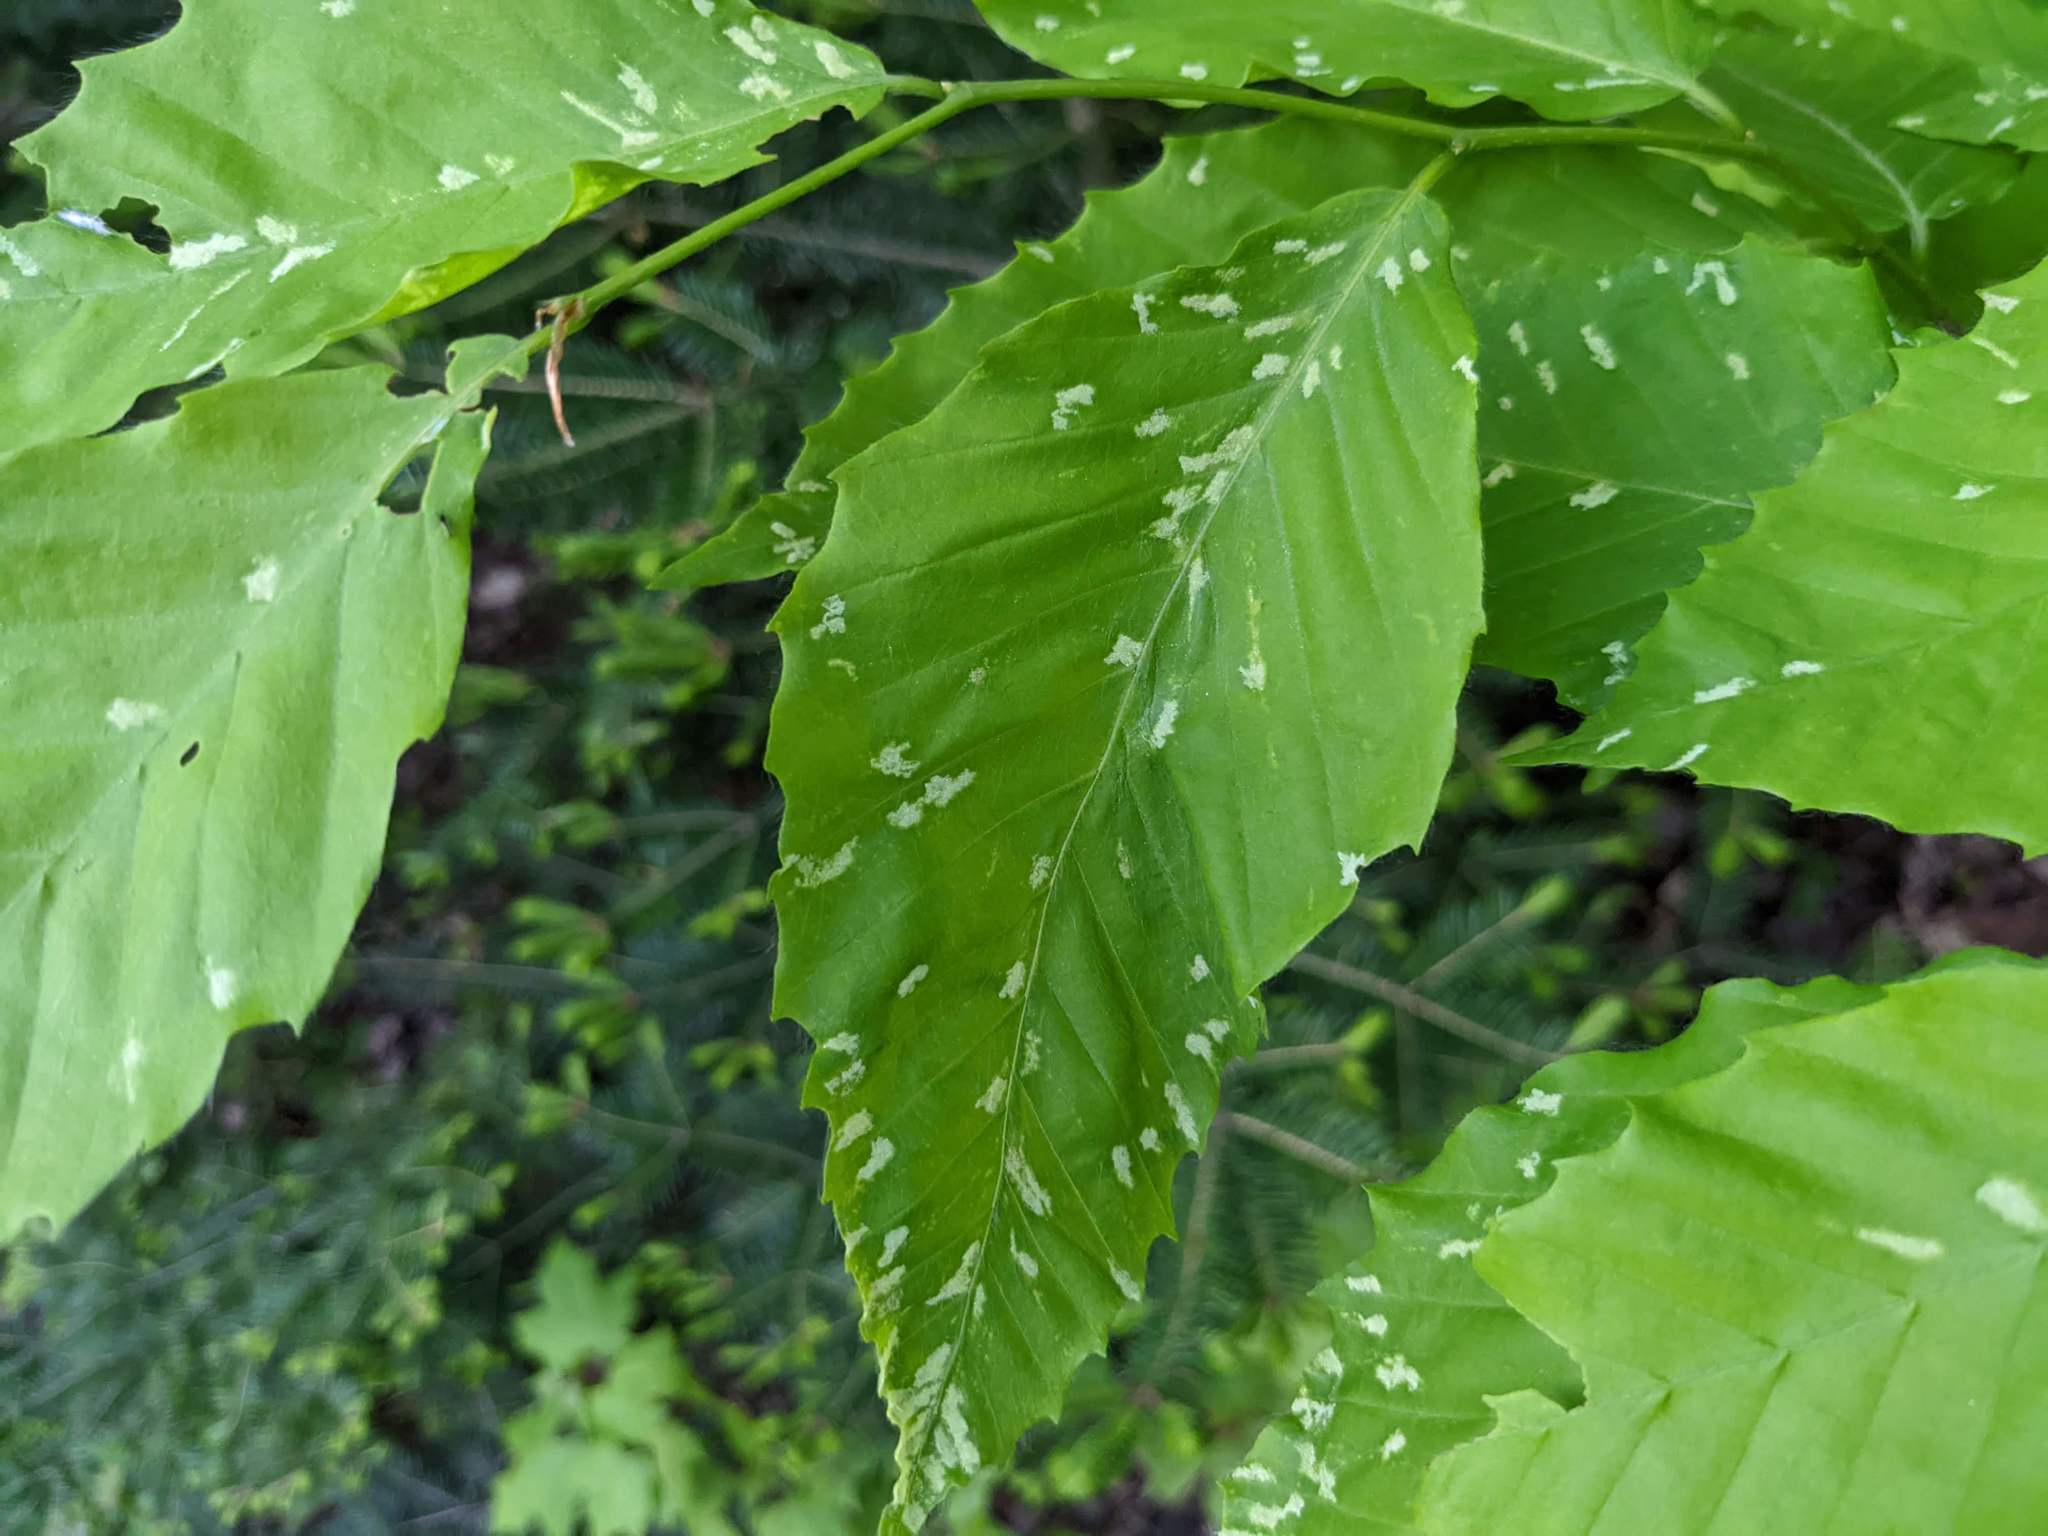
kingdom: Animalia
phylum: Arthropoda
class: Arachnida
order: Trombidiformes
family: Eriophyidae
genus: Acalitus
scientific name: Acalitus
